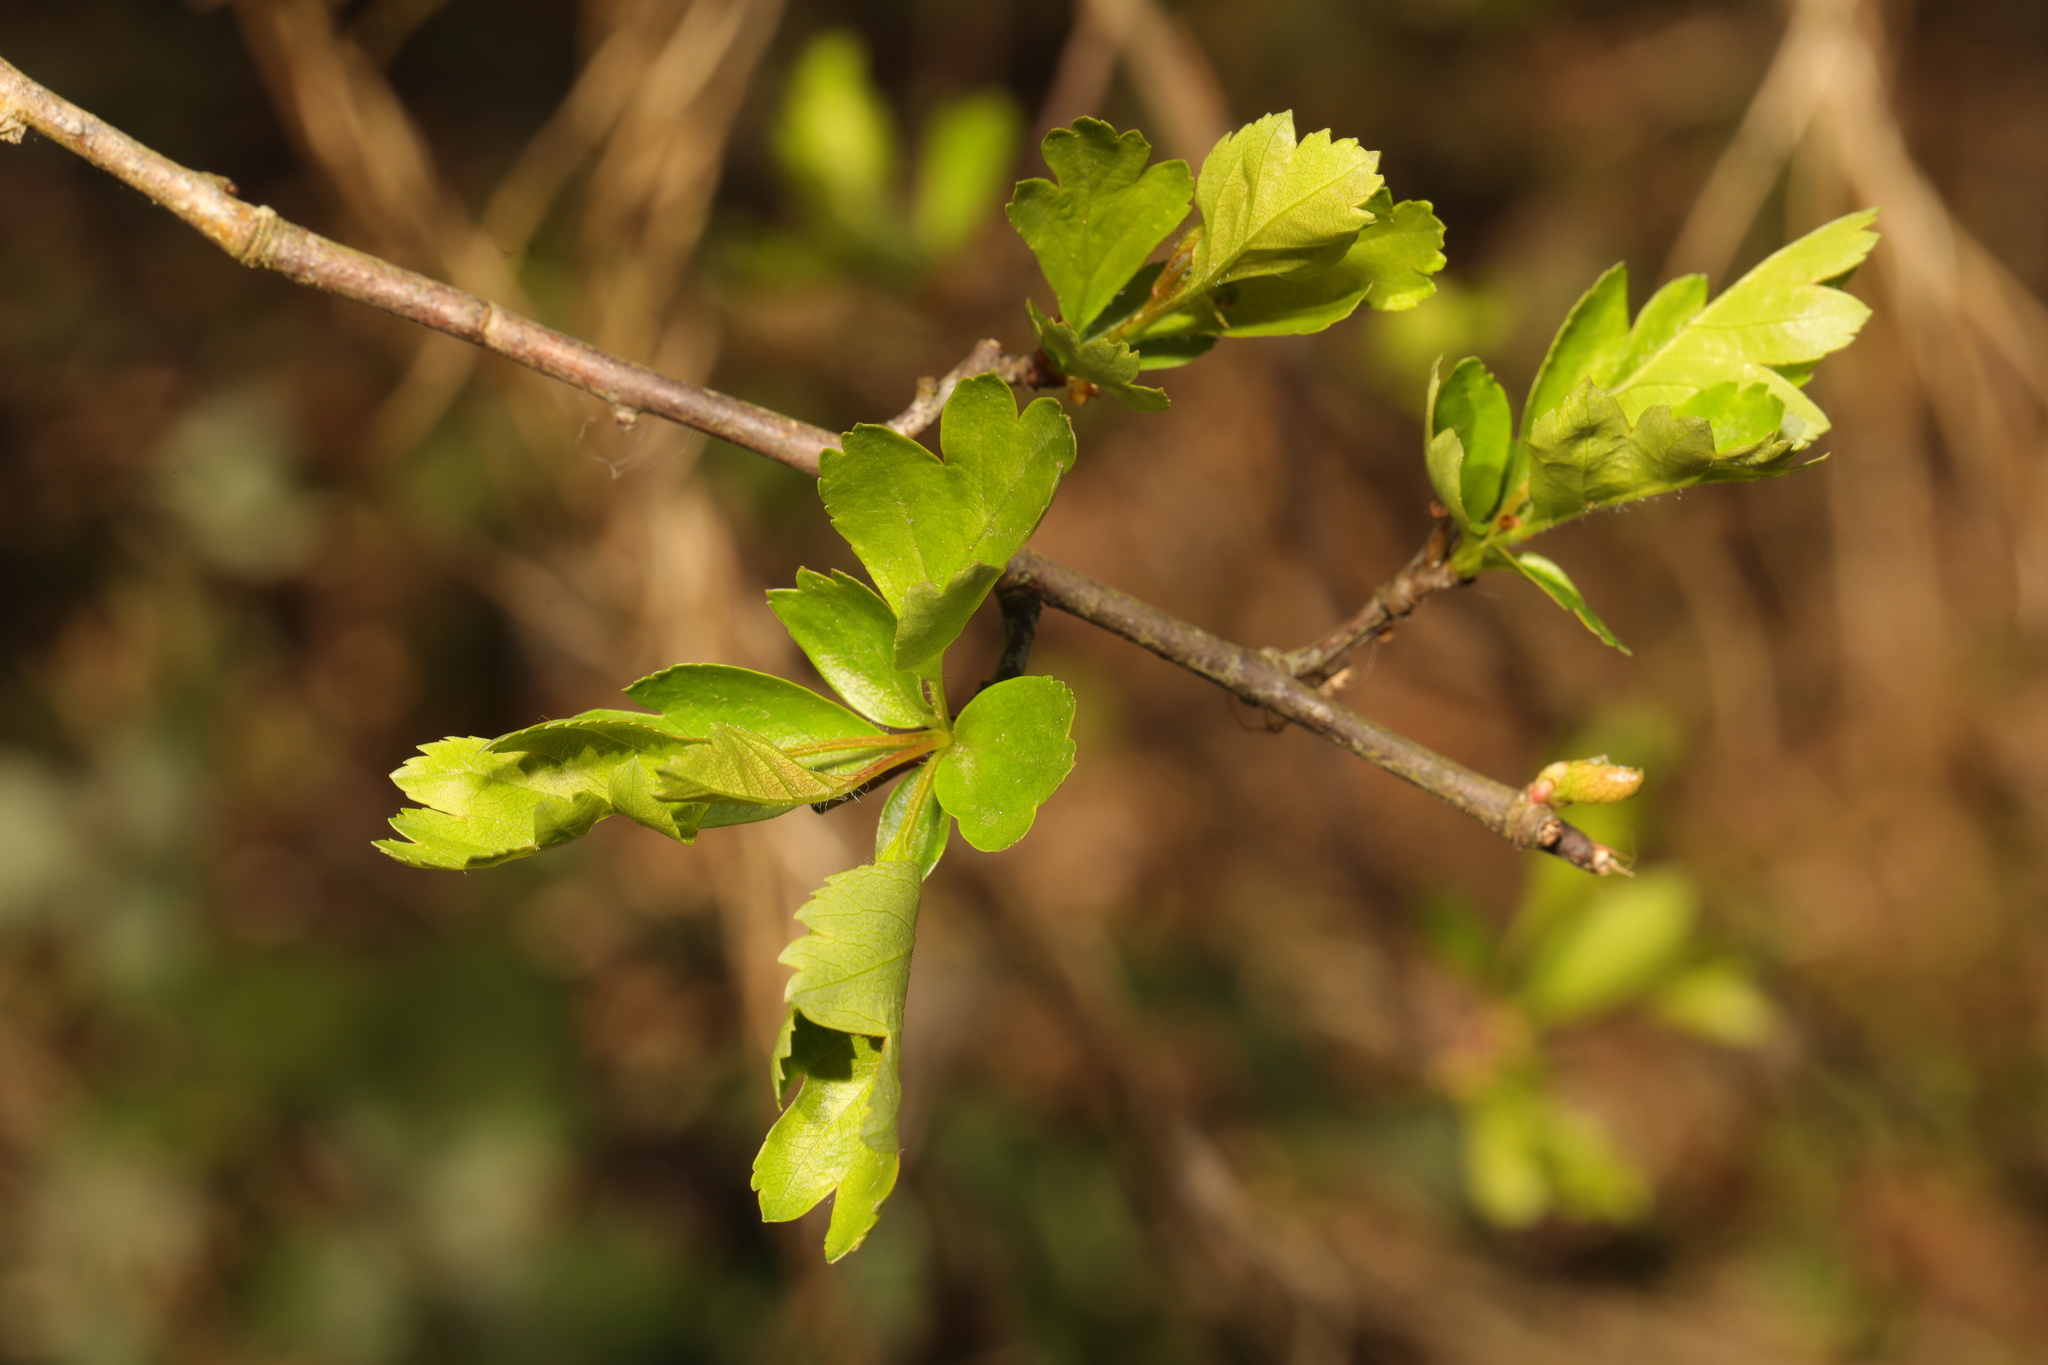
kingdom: Plantae
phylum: Tracheophyta
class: Magnoliopsida
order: Rosales
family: Rosaceae
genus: Crataegus
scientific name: Crataegus monogyna
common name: Hawthorn
